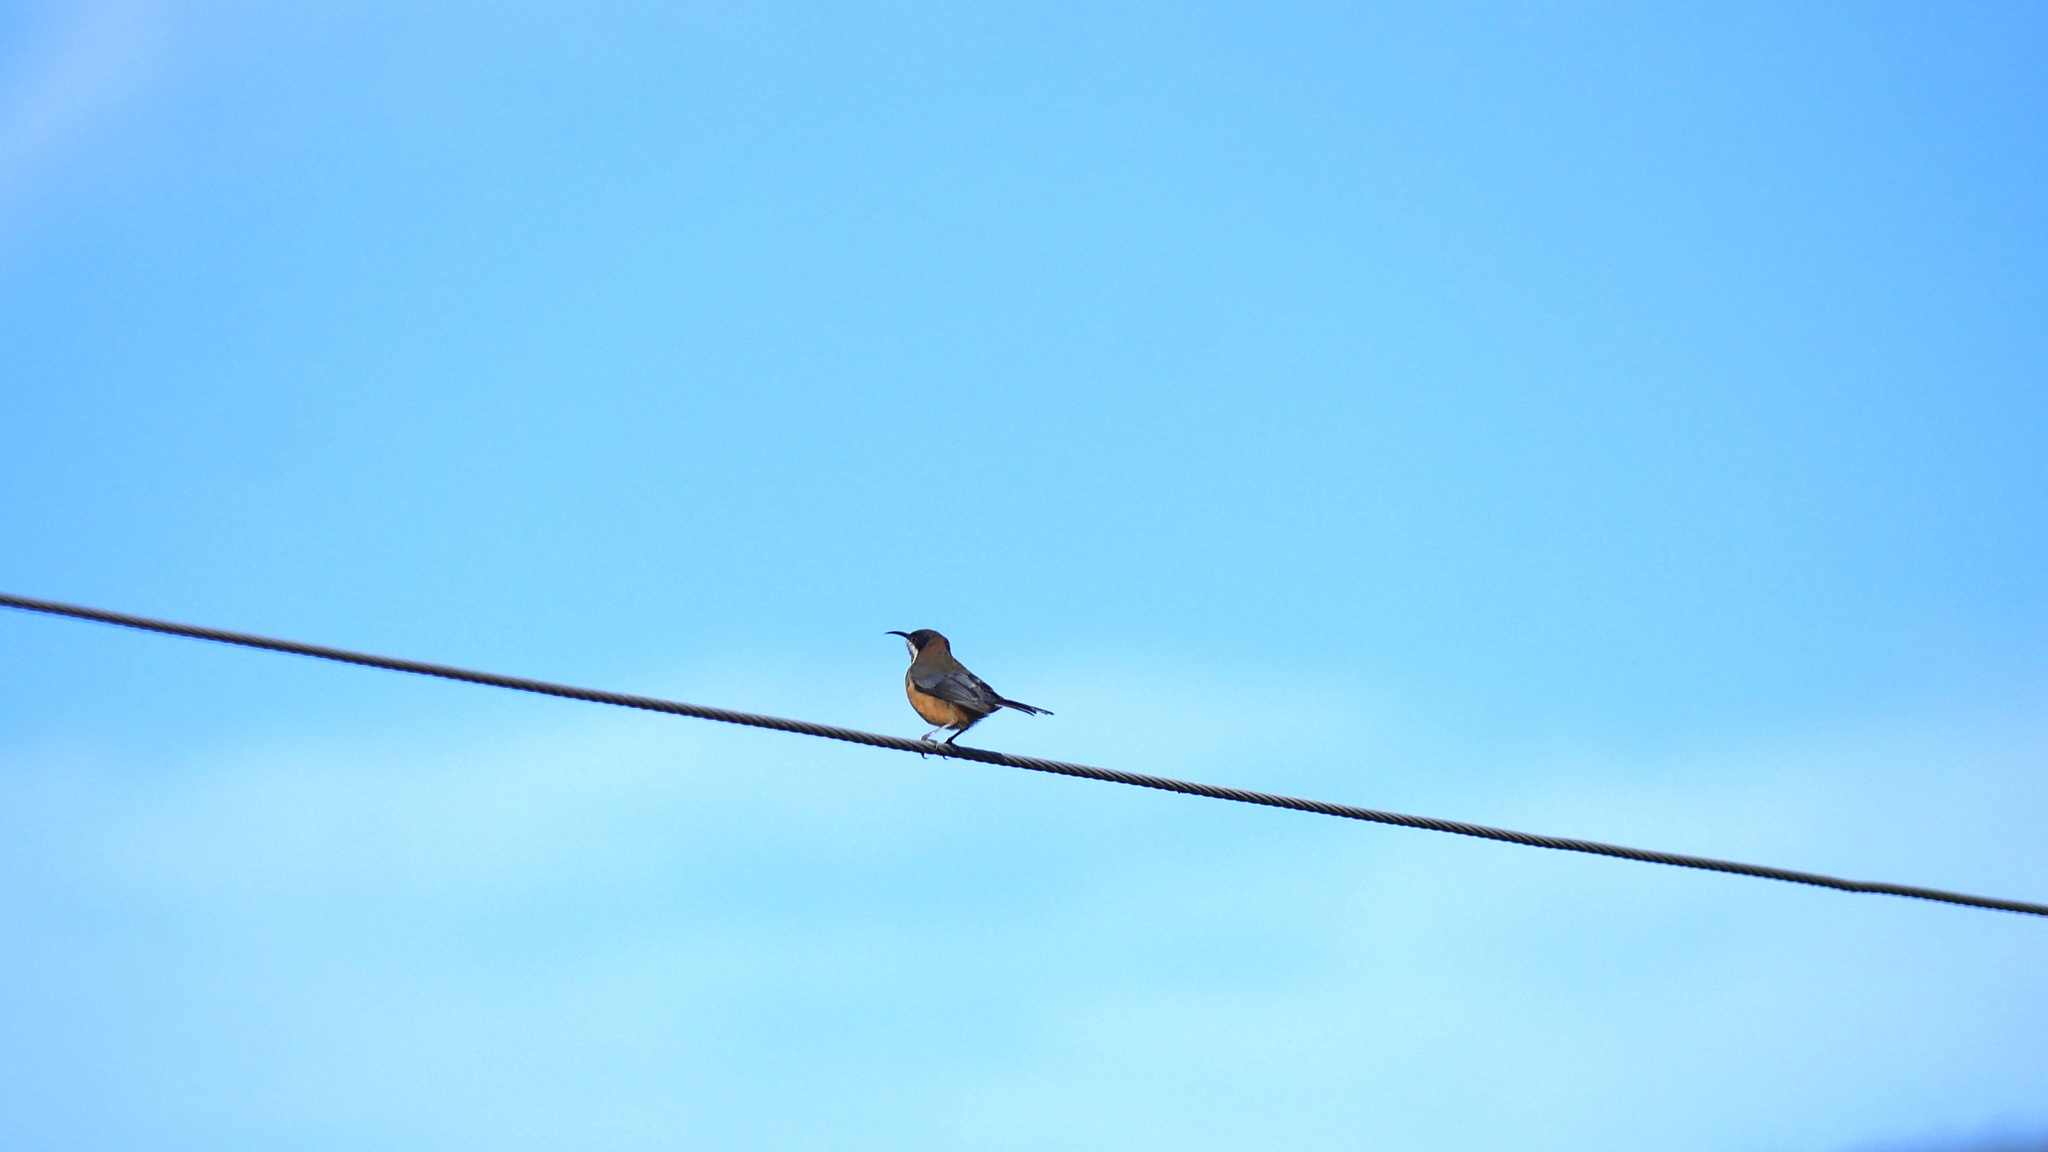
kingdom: Animalia
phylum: Chordata
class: Aves
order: Passeriformes
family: Meliphagidae
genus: Acanthorhynchus
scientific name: Acanthorhynchus tenuirostris
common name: Eastern spinebill
